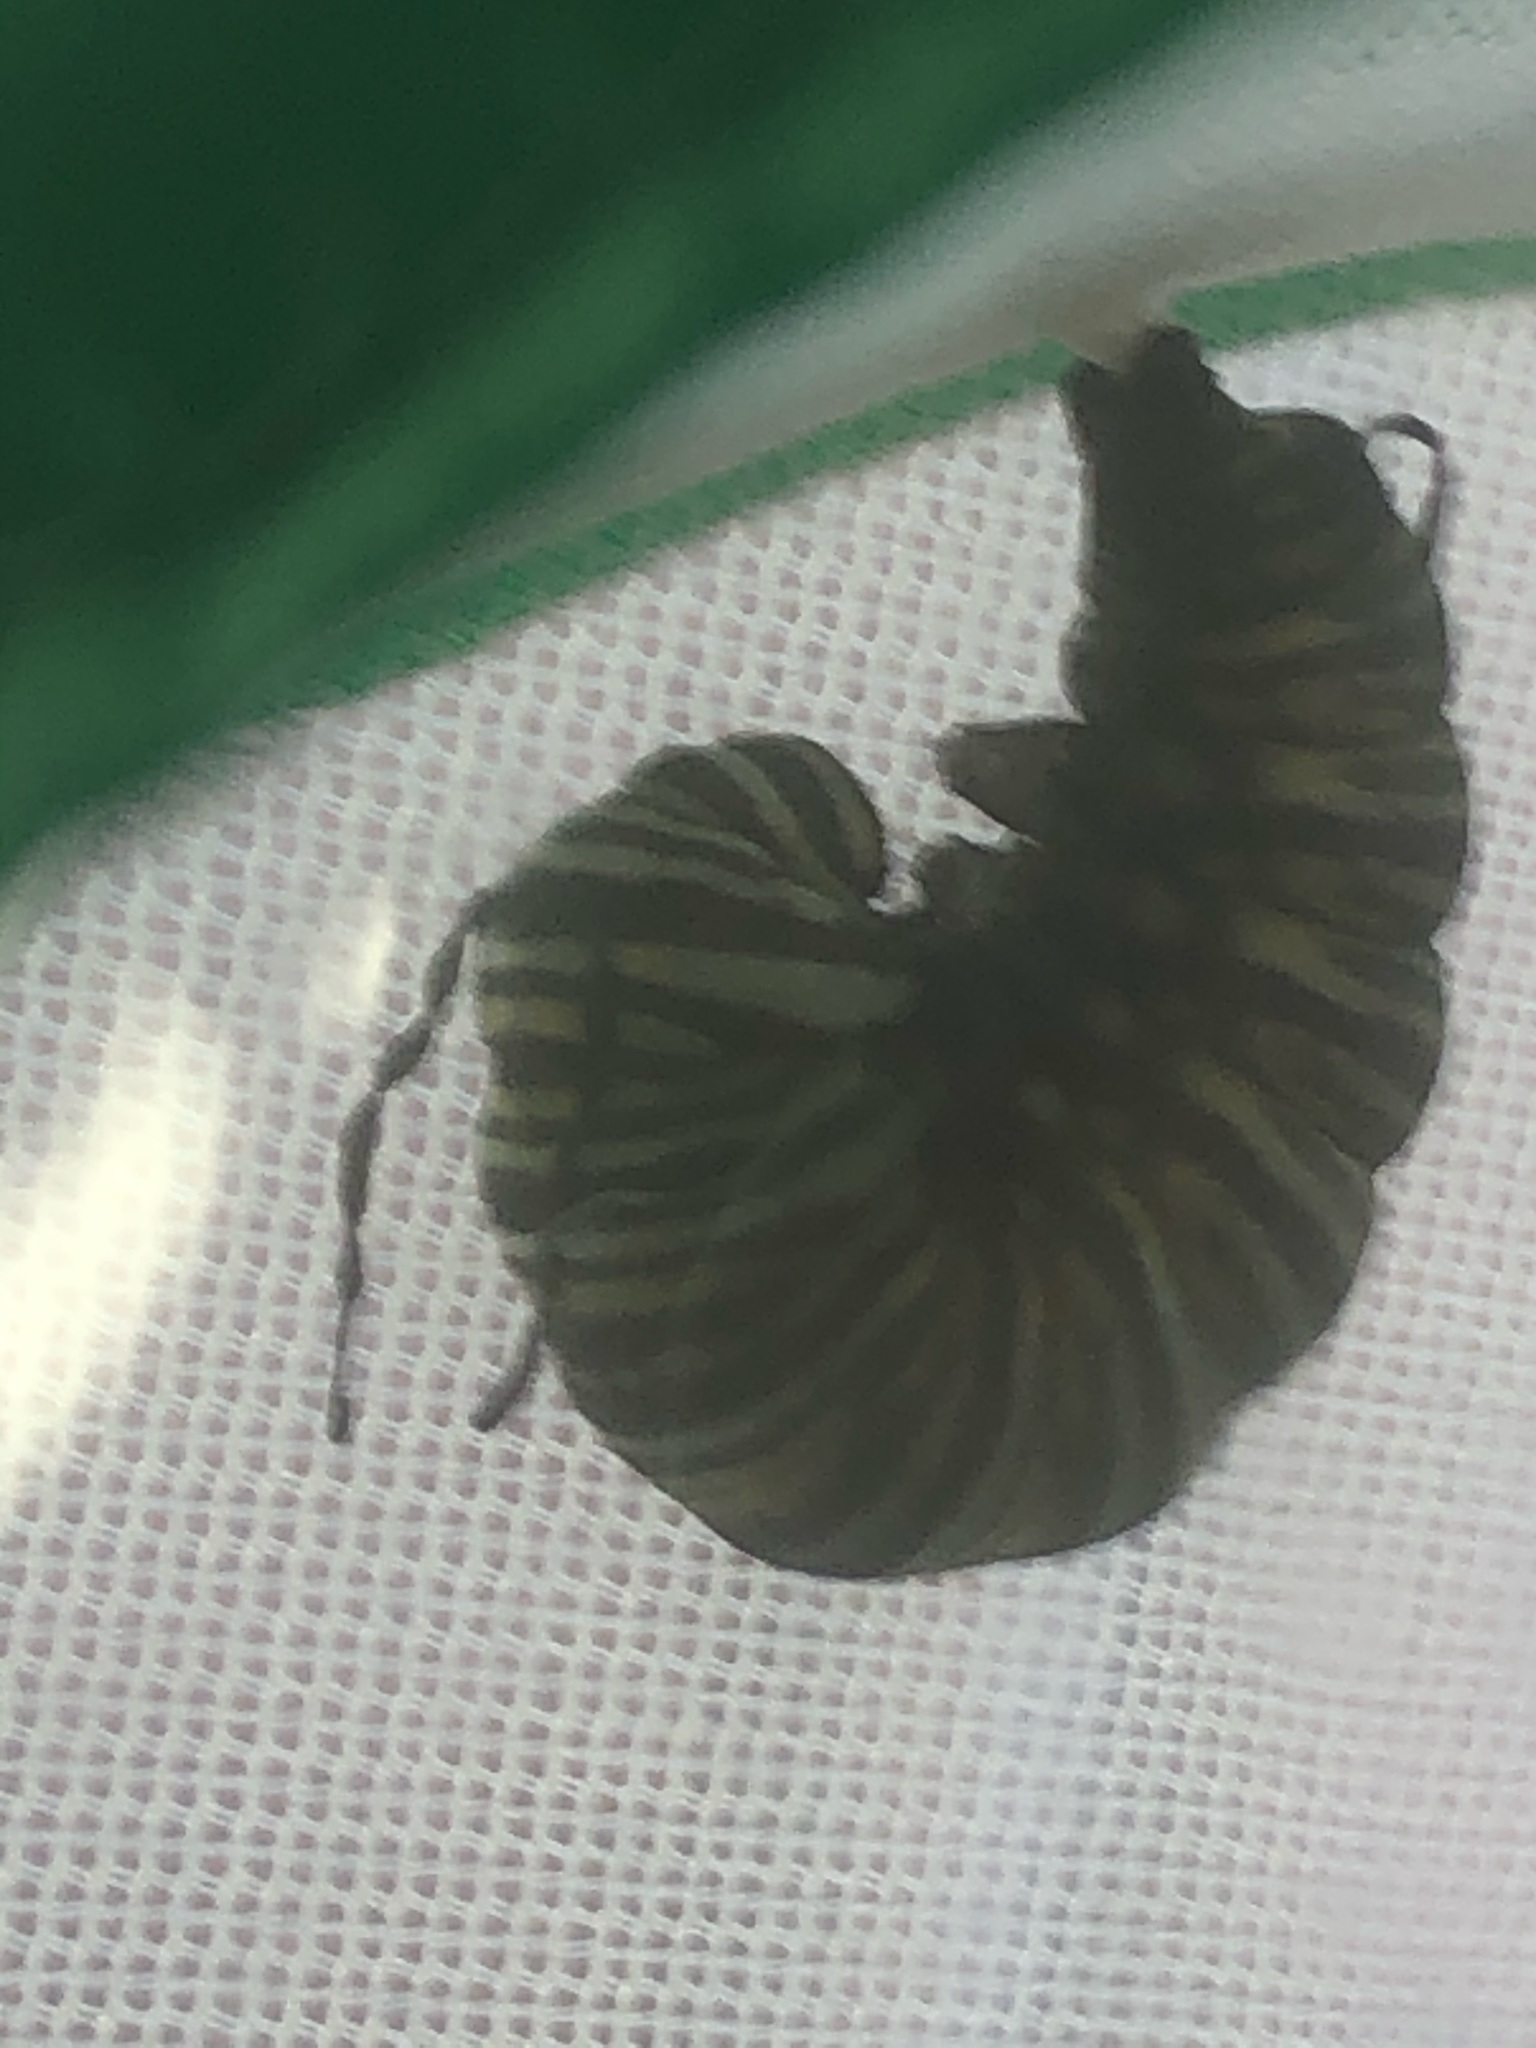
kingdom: Animalia
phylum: Arthropoda
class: Insecta
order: Lepidoptera
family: Nymphalidae
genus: Danaus
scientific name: Danaus plexippus
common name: Monarch
